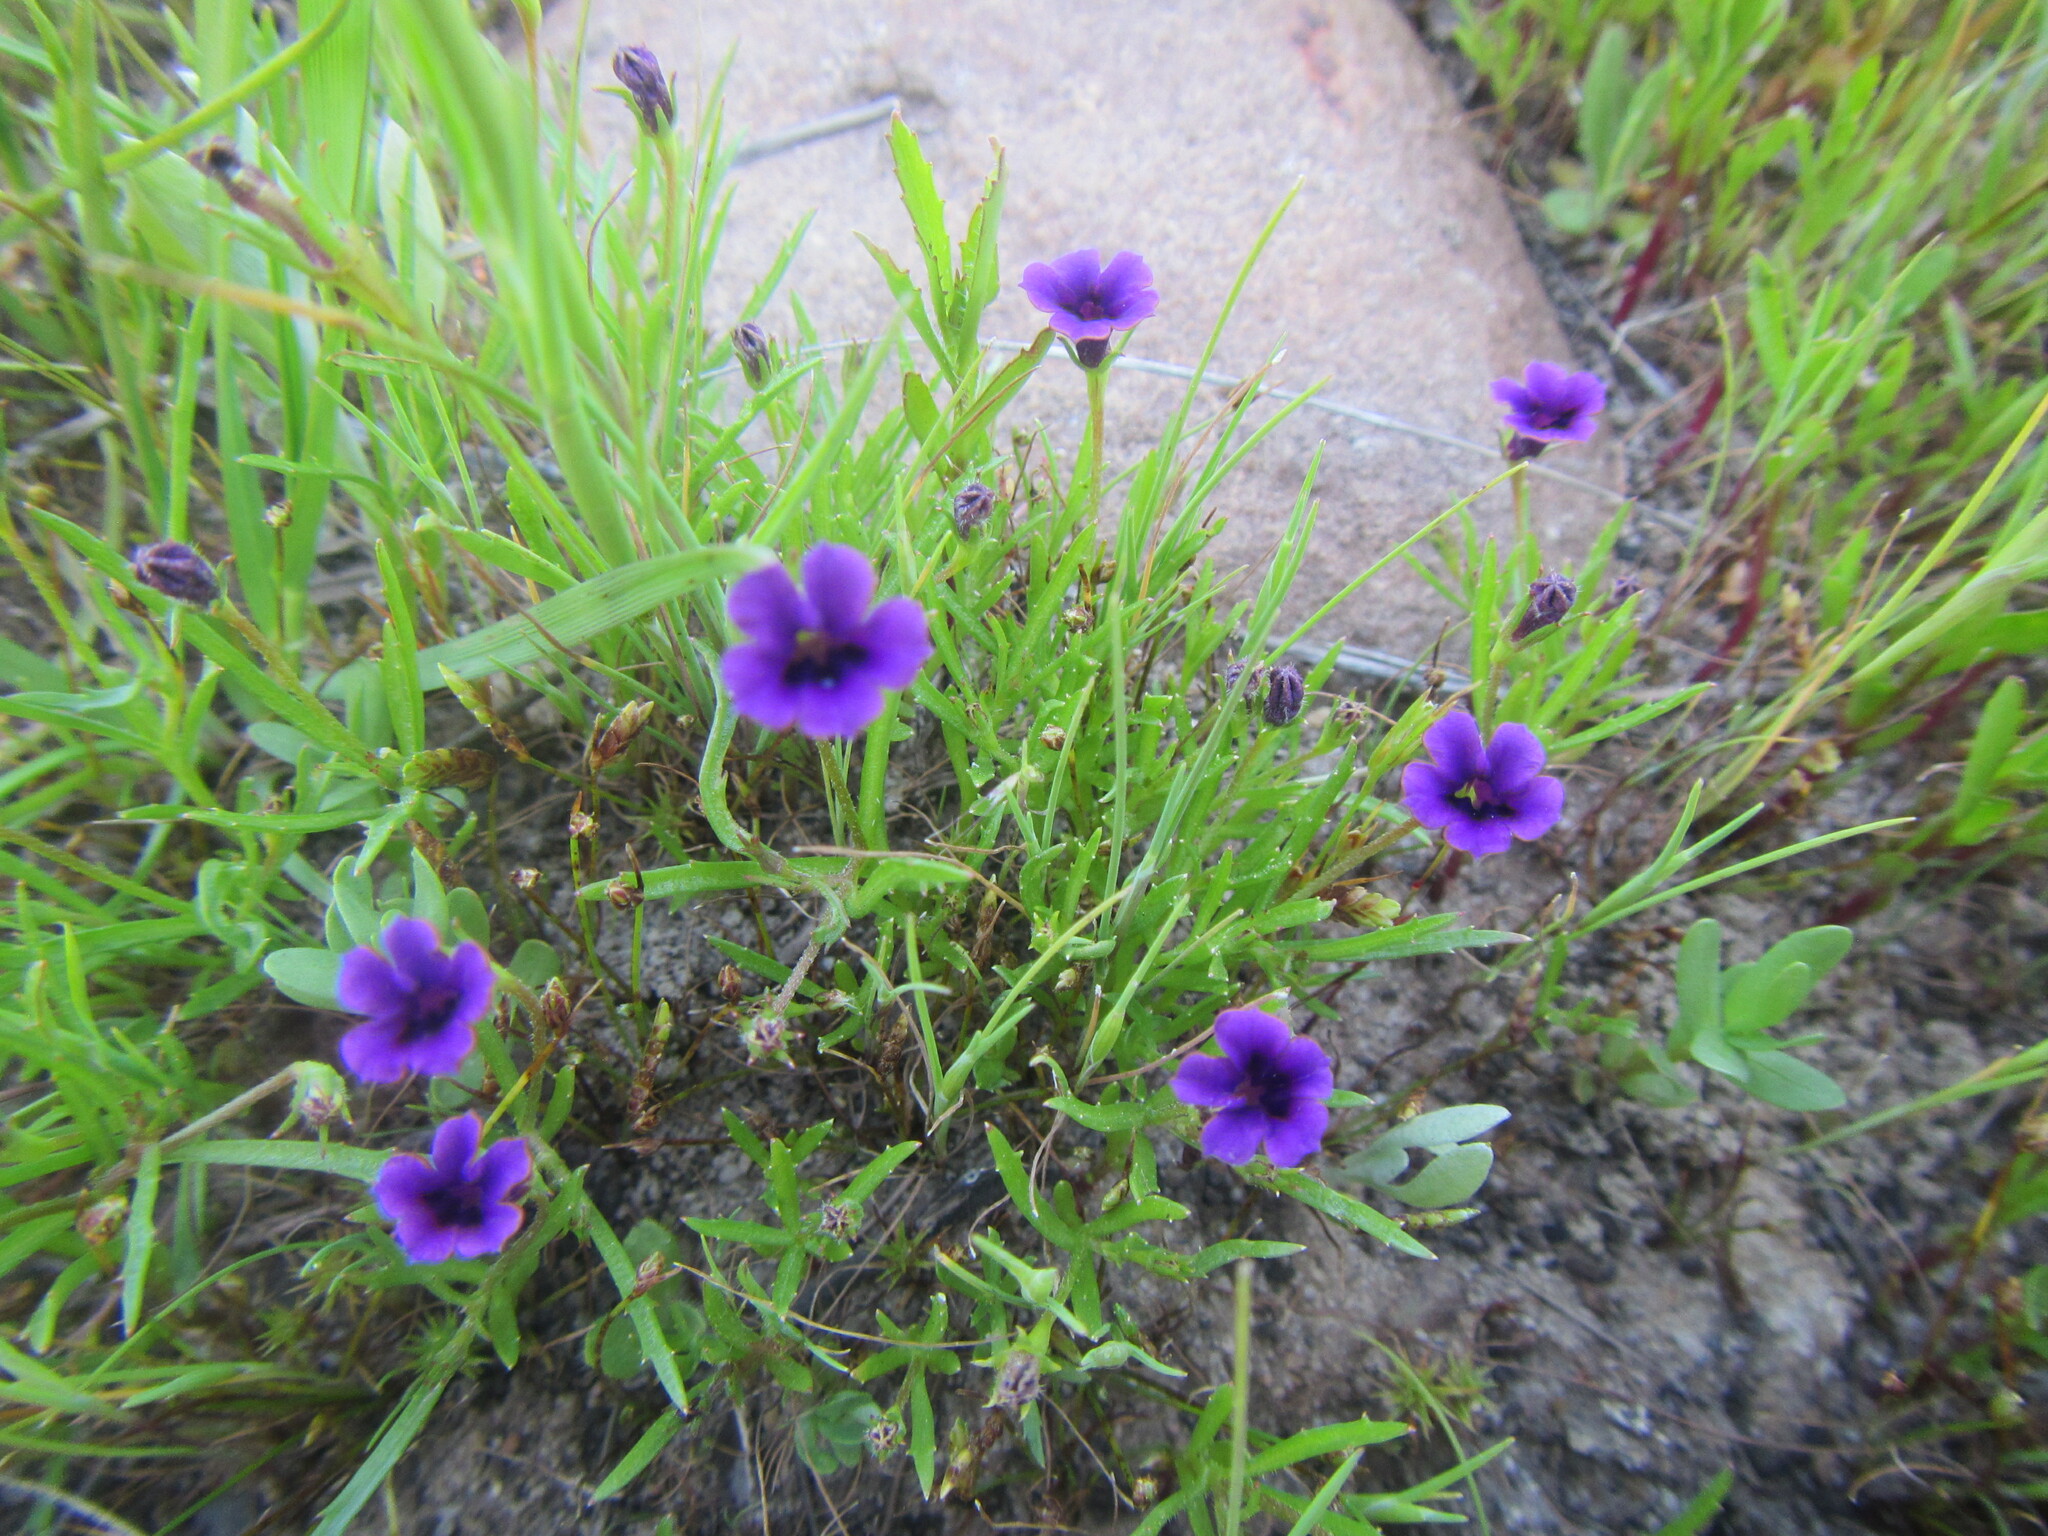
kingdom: Plantae
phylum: Tracheophyta
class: Magnoliopsida
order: Asterales
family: Campanulaceae
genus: Monopsis
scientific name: Monopsis debilis
